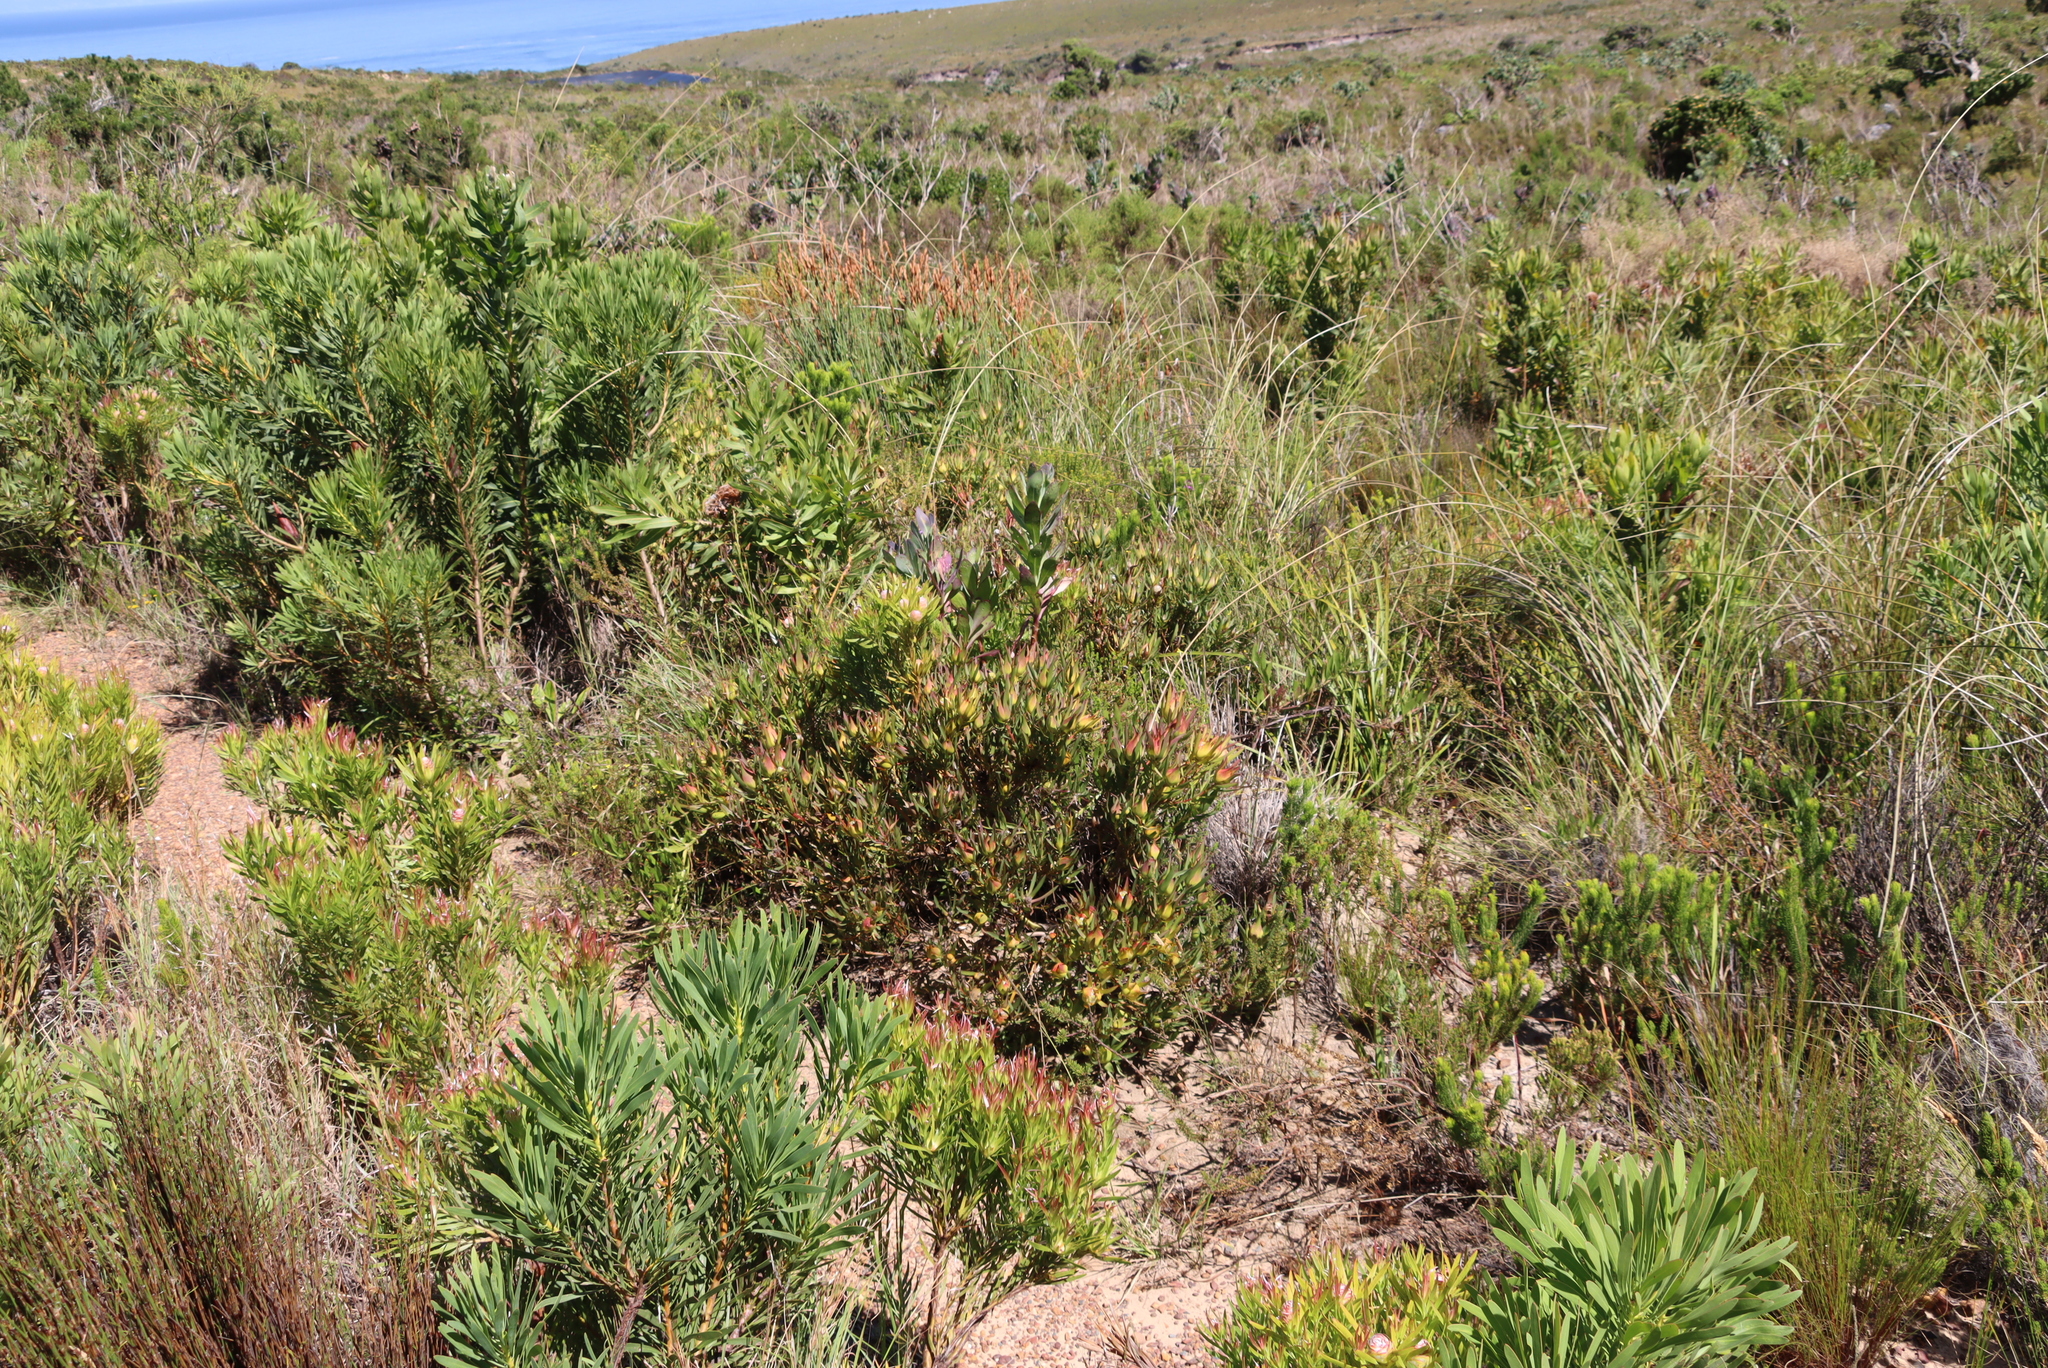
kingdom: Plantae
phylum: Tracheophyta
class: Magnoliopsida
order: Proteales
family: Proteaceae
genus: Leucadendron
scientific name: Leucadendron salignum
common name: Common sunshine conebush
